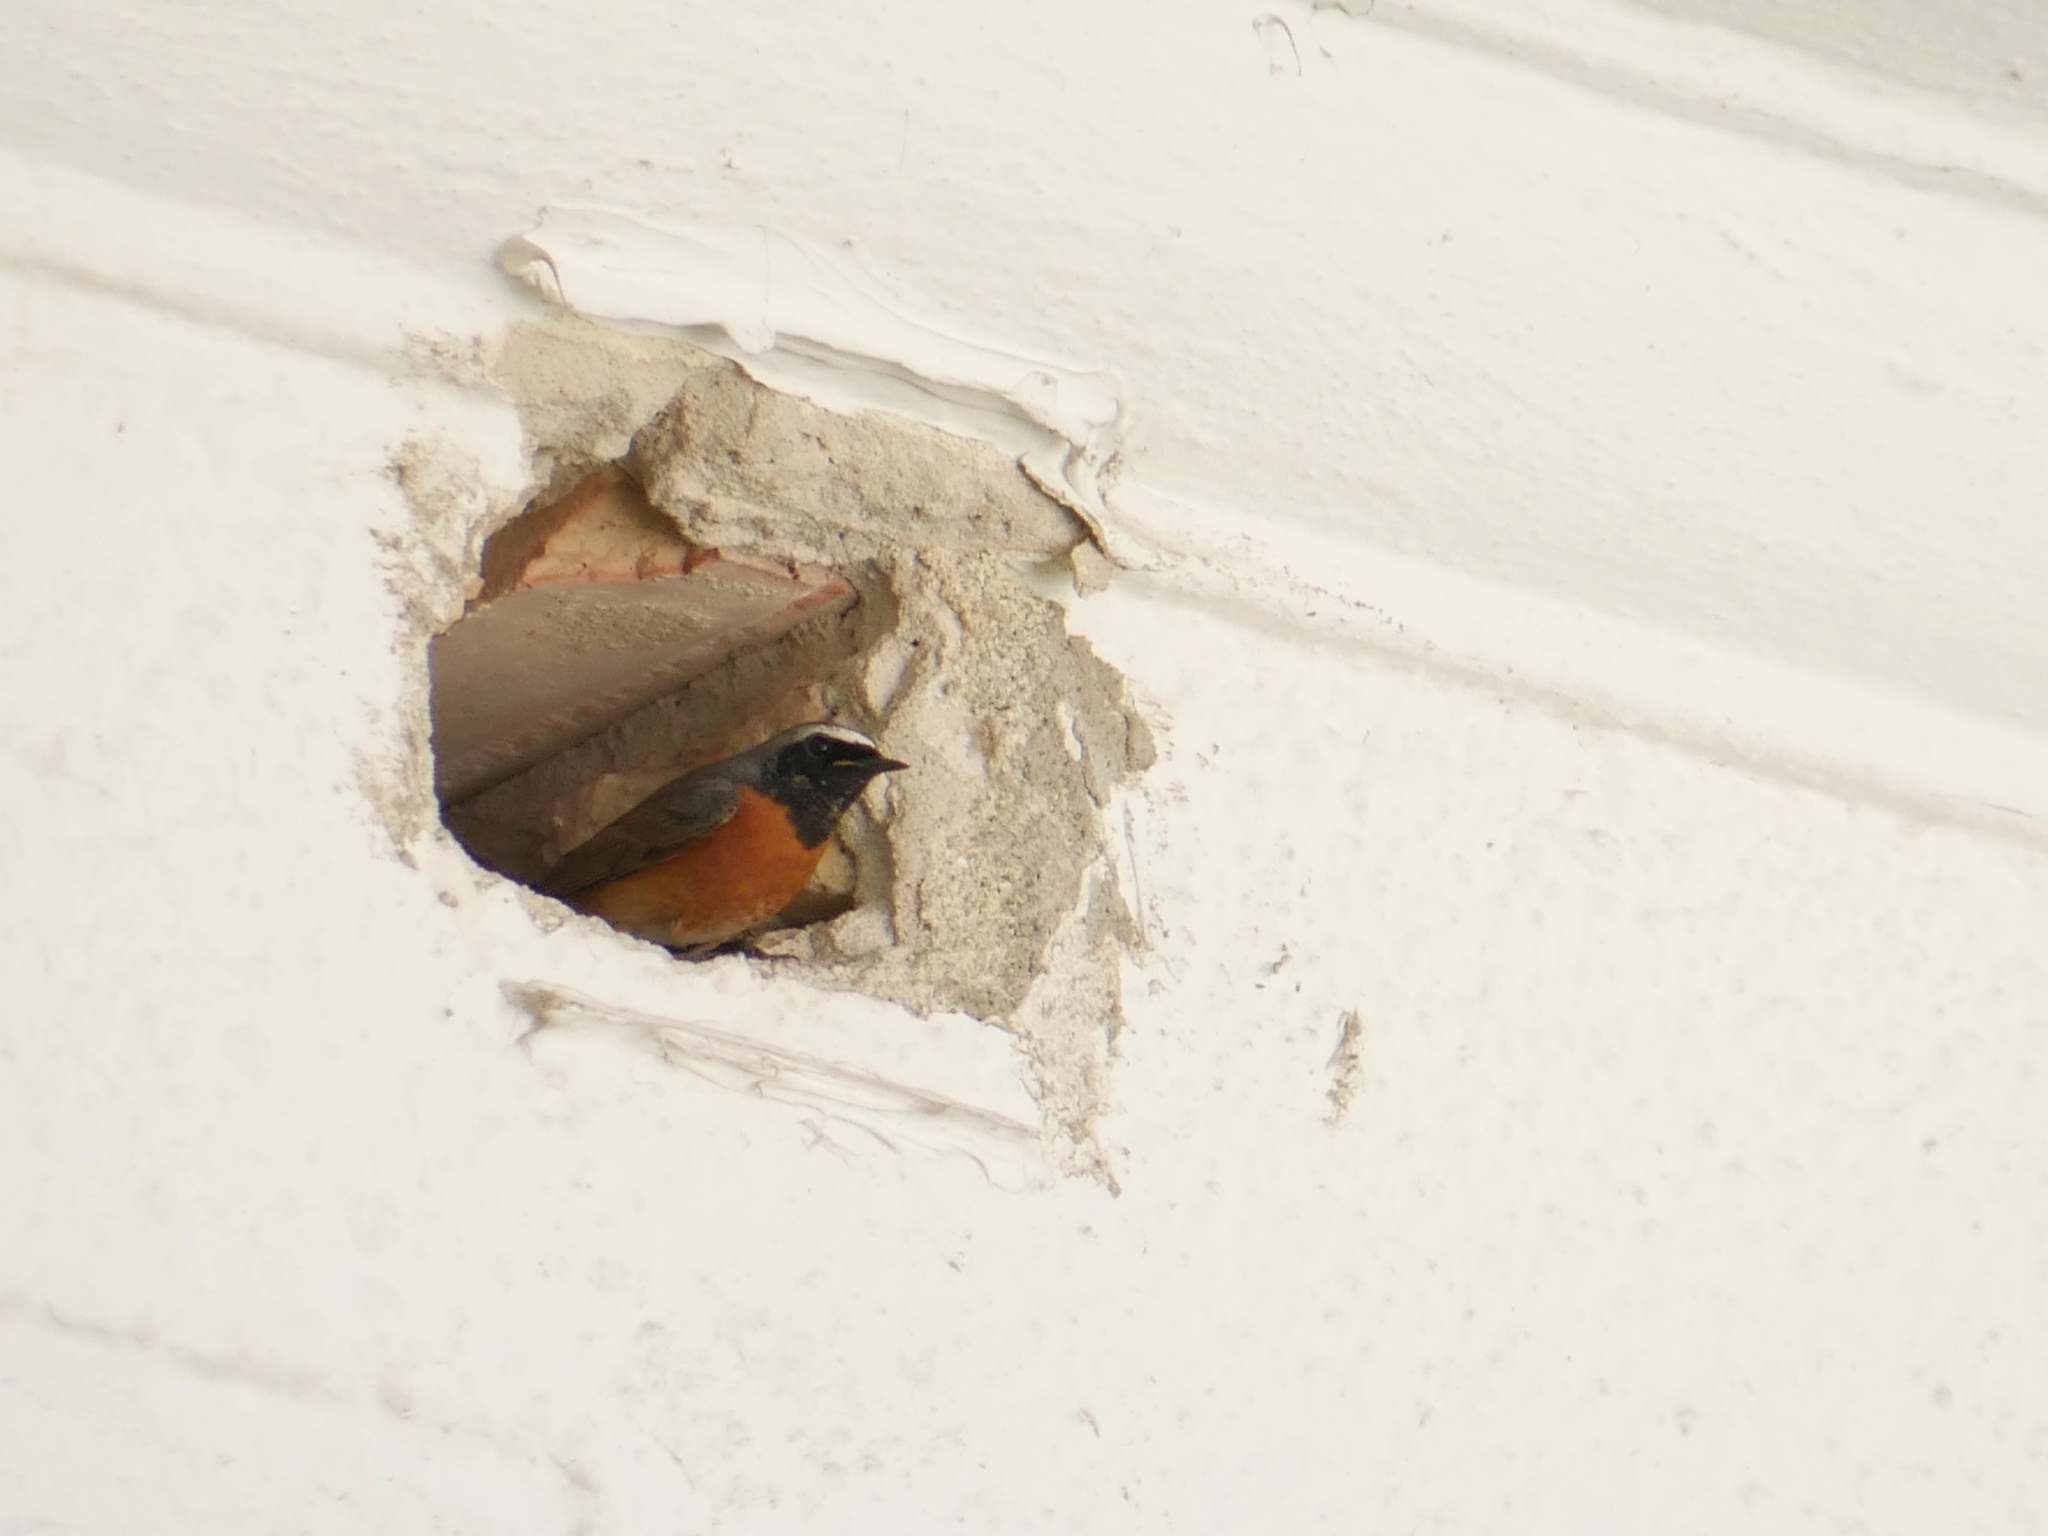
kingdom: Animalia
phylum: Chordata
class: Aves
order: Passeriformes
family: Muscicapidae
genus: Phoenicurus
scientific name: Phoenicurus phoenicurus
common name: Common redstart
